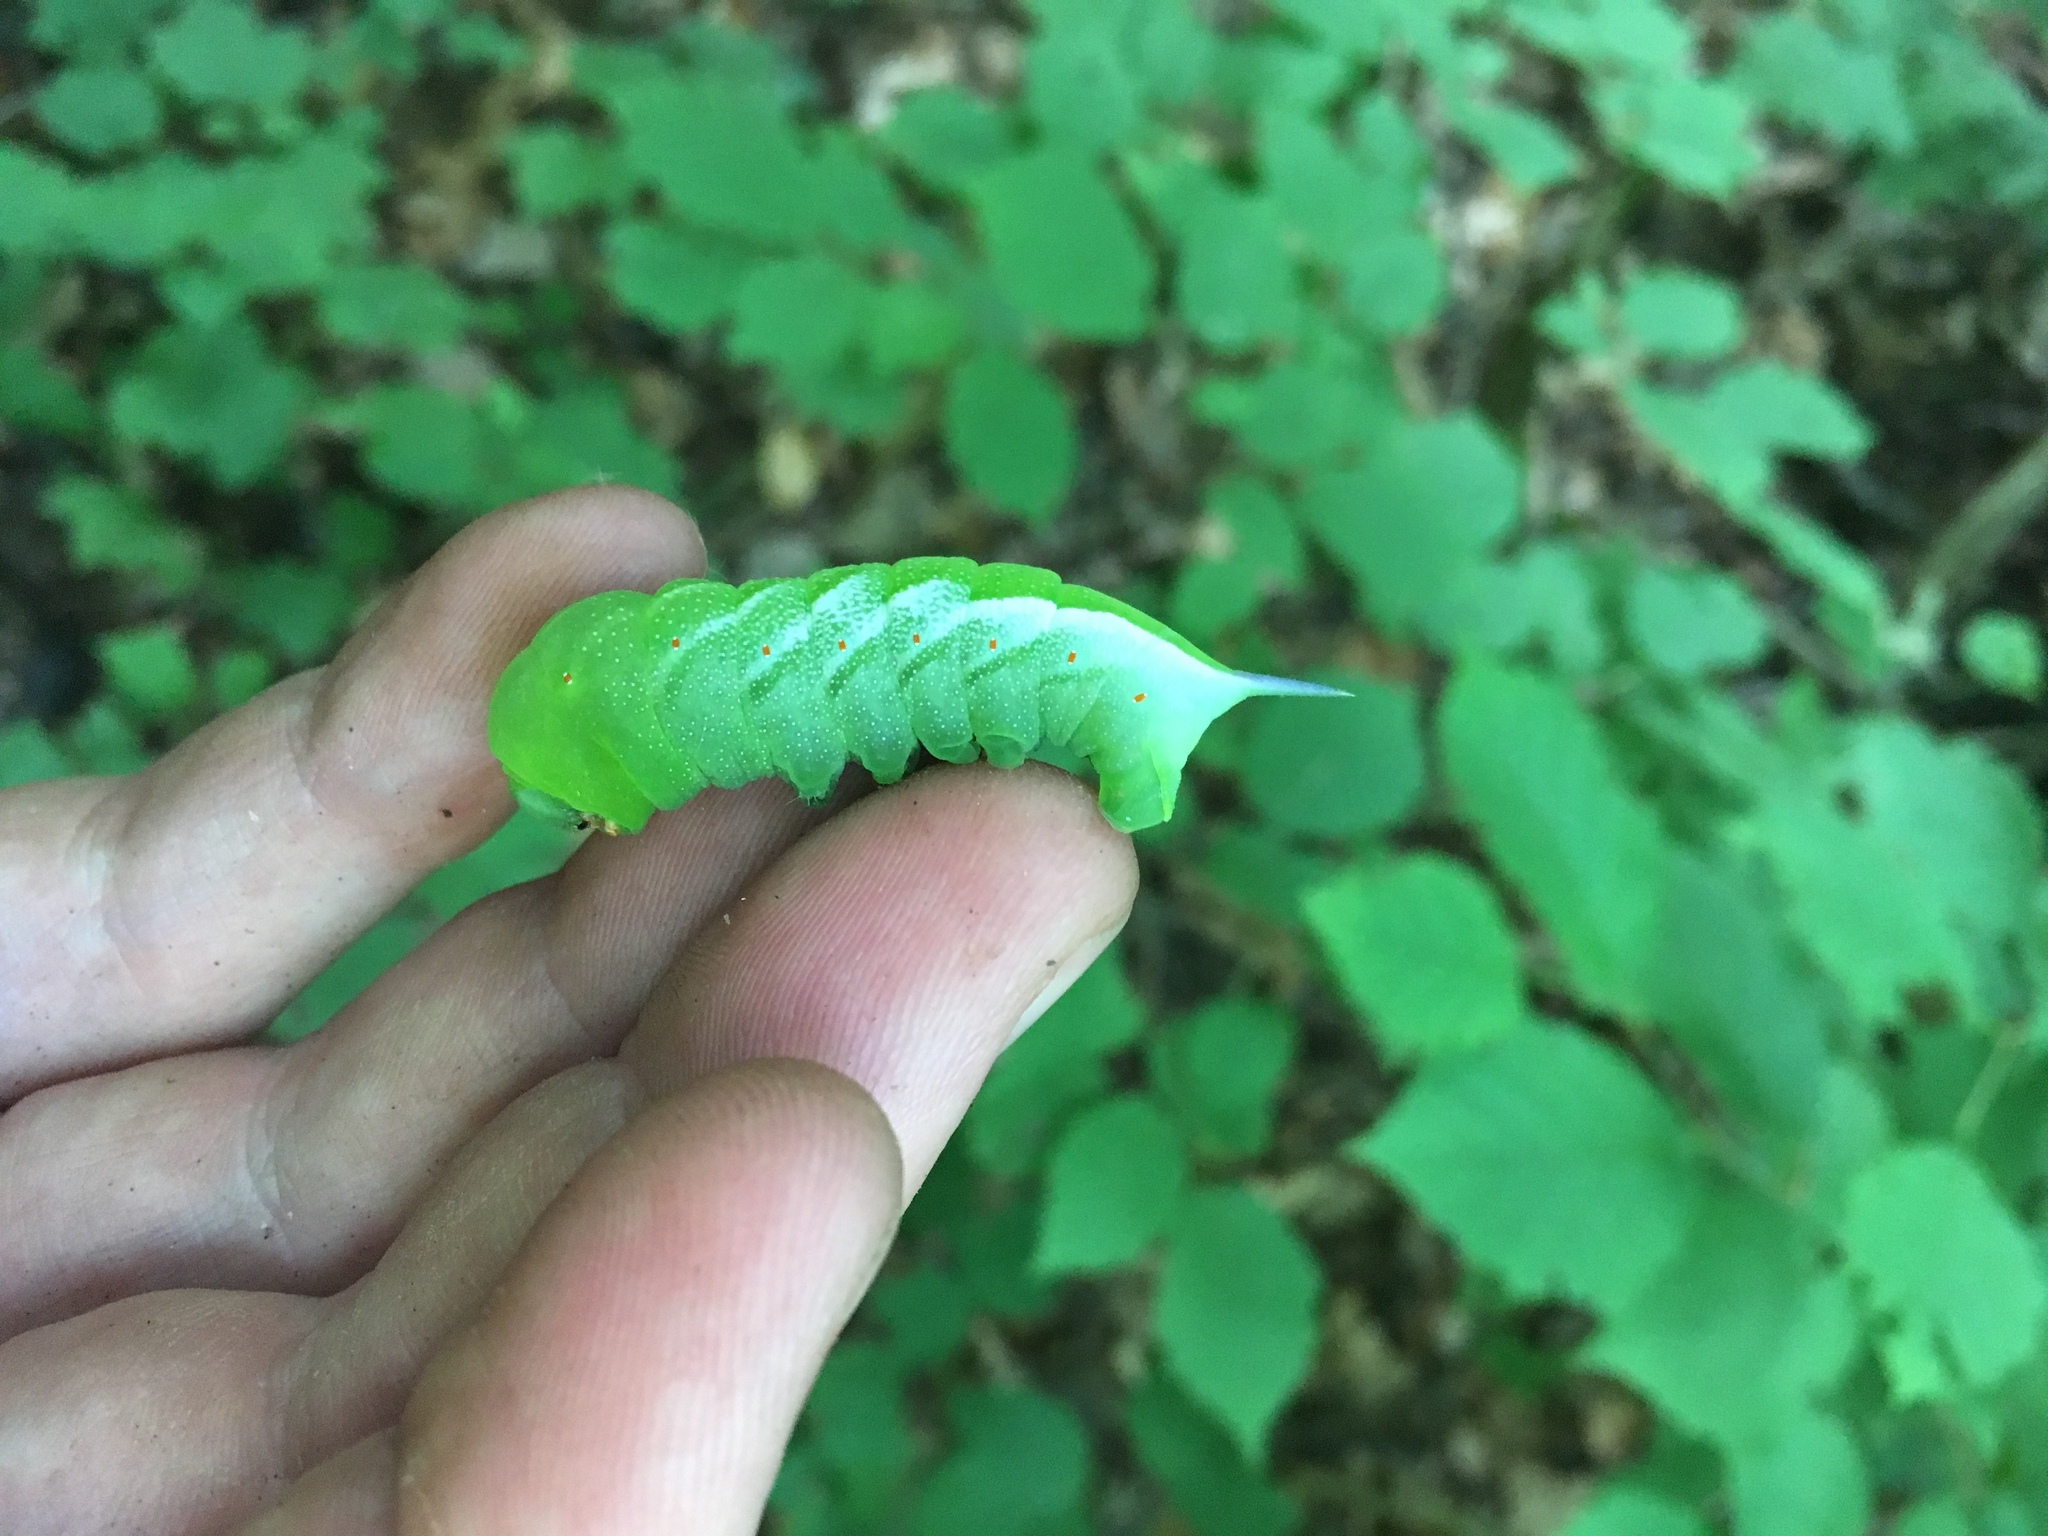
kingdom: Animalia
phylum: Arthropoda
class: Insecta
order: Lepidoptera
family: Sphingidae
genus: Darapsa
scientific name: Darapsa choerilus
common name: Azalea sphinx
